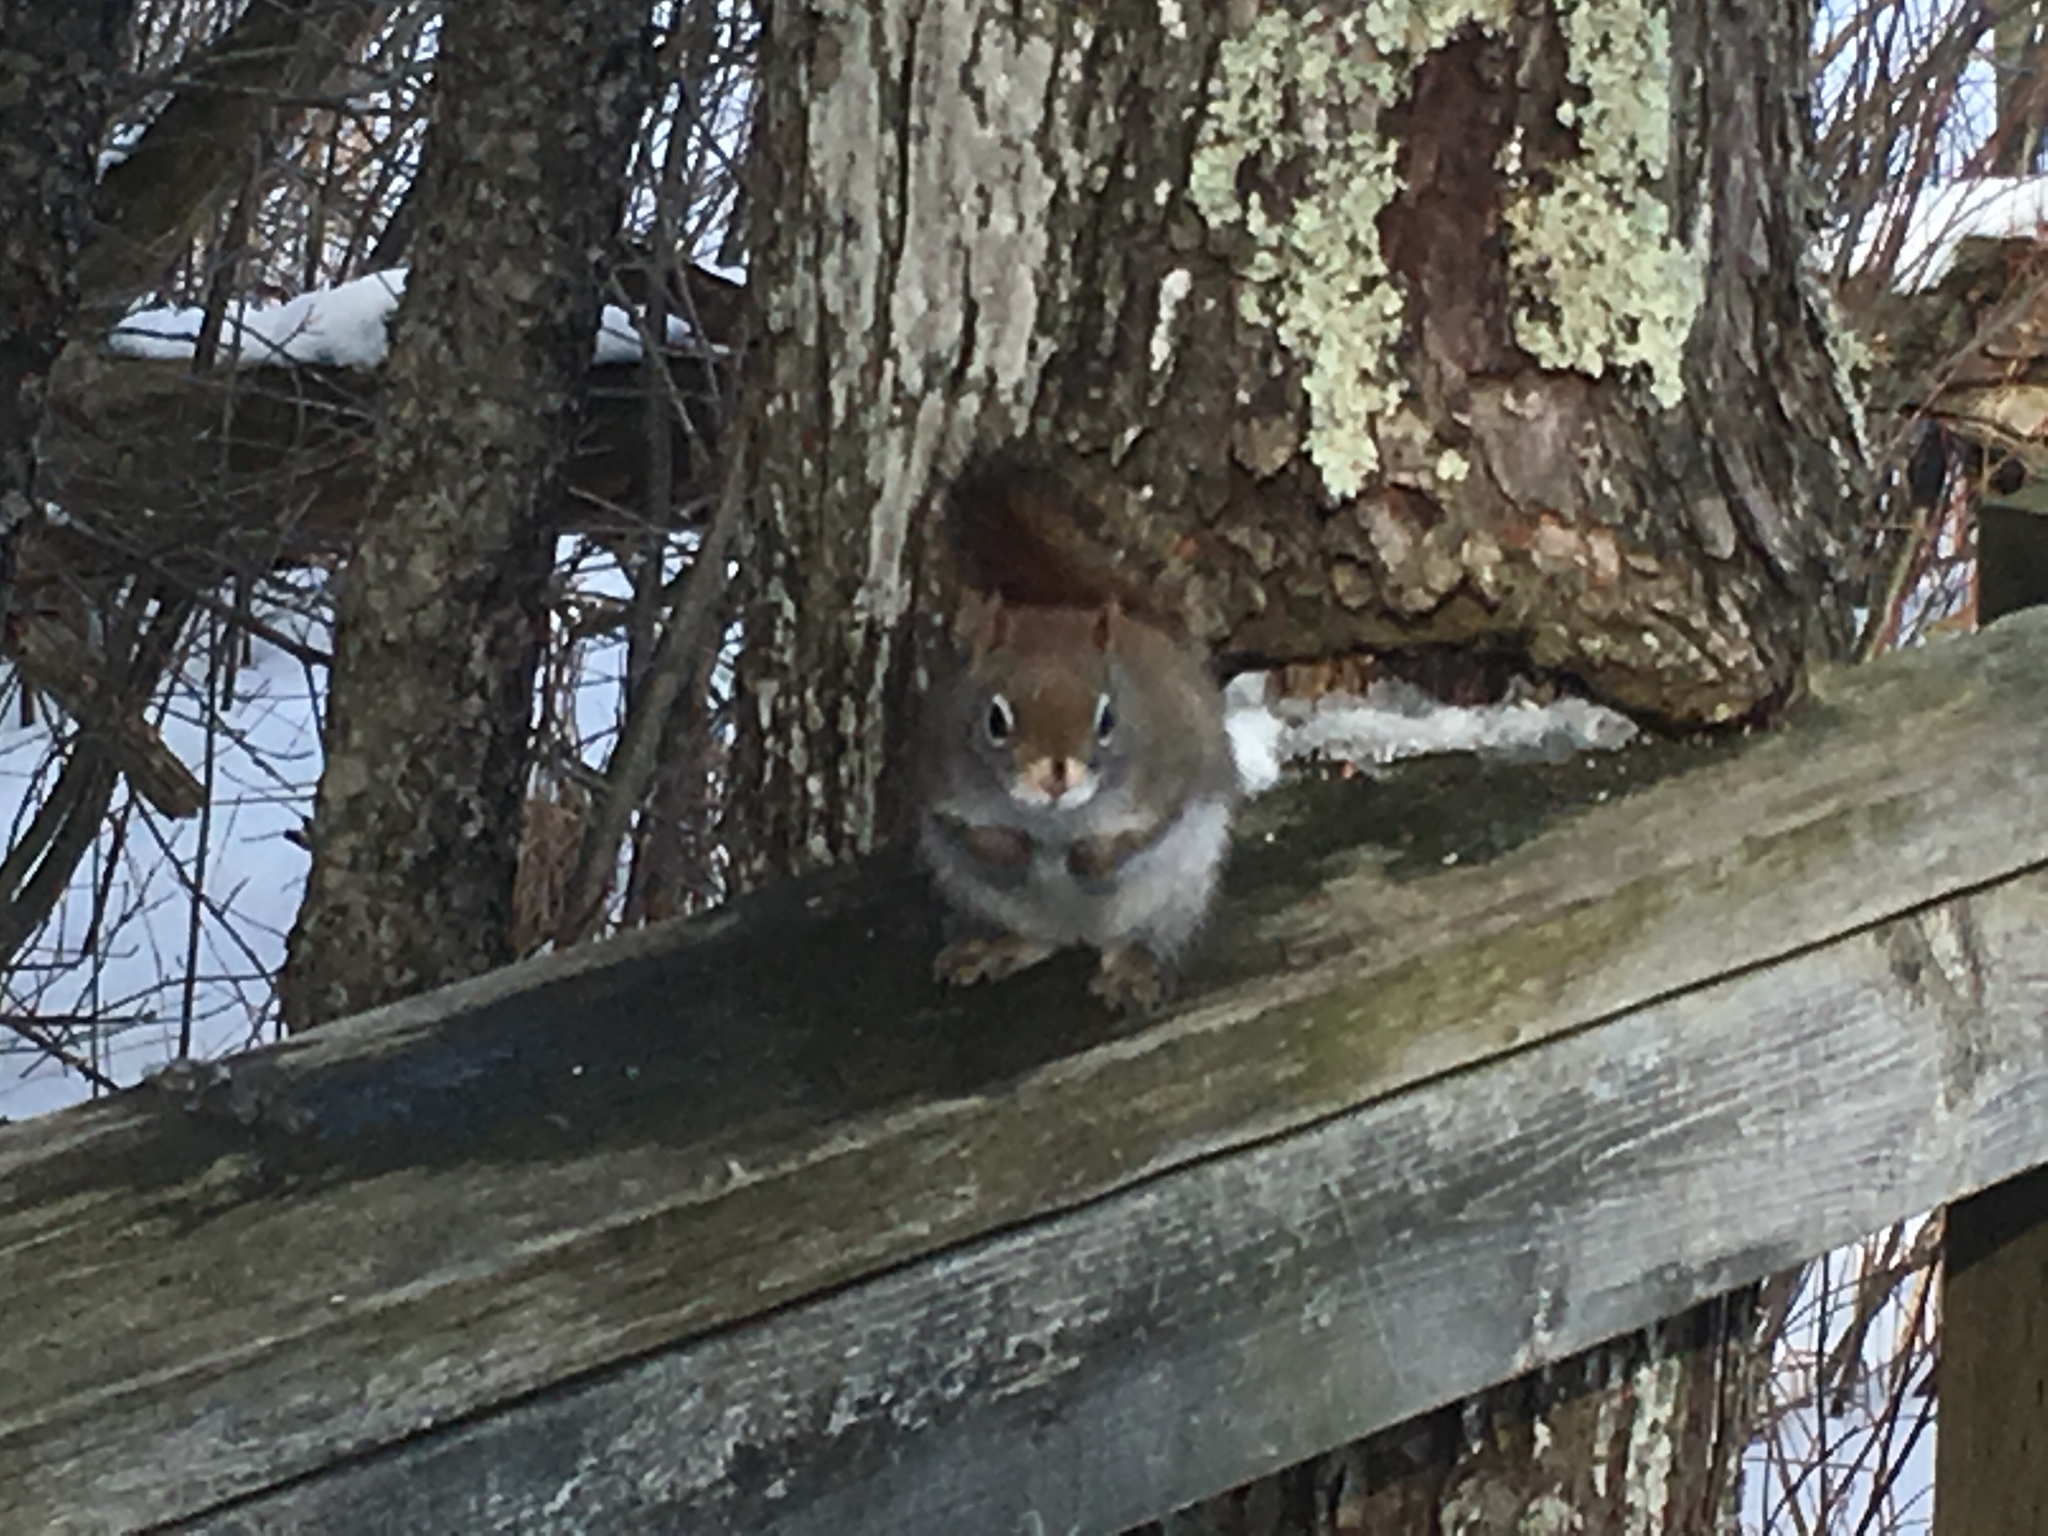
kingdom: Animalia
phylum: Chordata
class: Mammalia
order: Rodentia
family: Sciuridae
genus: Tamiasciurus
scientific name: Tamiasciurus hudsonicus
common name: Red squirrel
